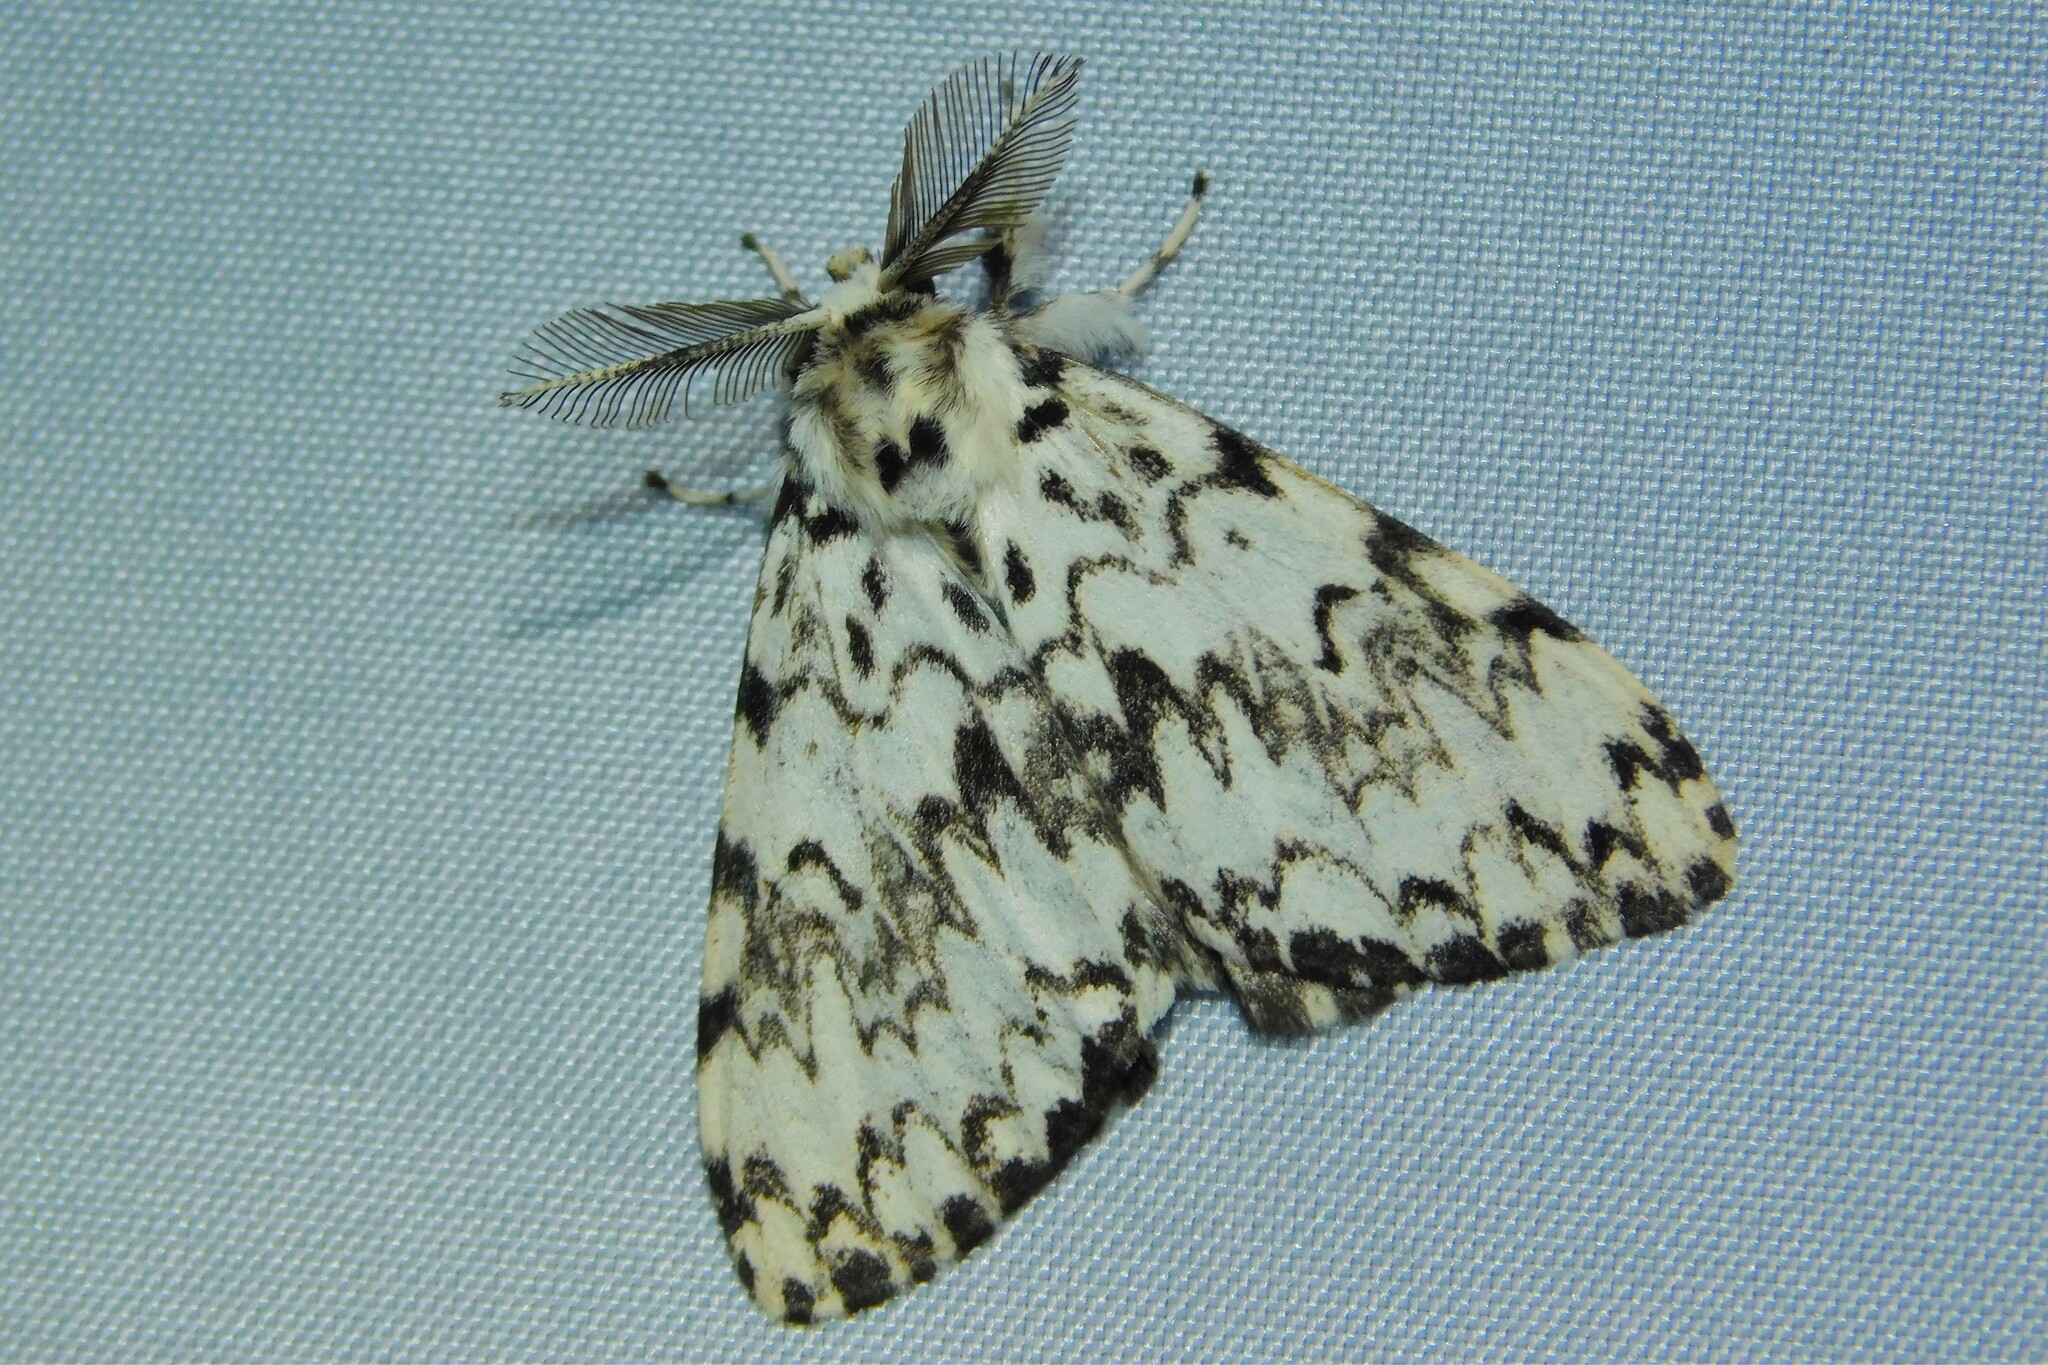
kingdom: Animalia
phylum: Arthropoda
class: Insecta
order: Lepidoptera
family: Erebidae
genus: Lymantria
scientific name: Lymantria monacha
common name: Black arches
